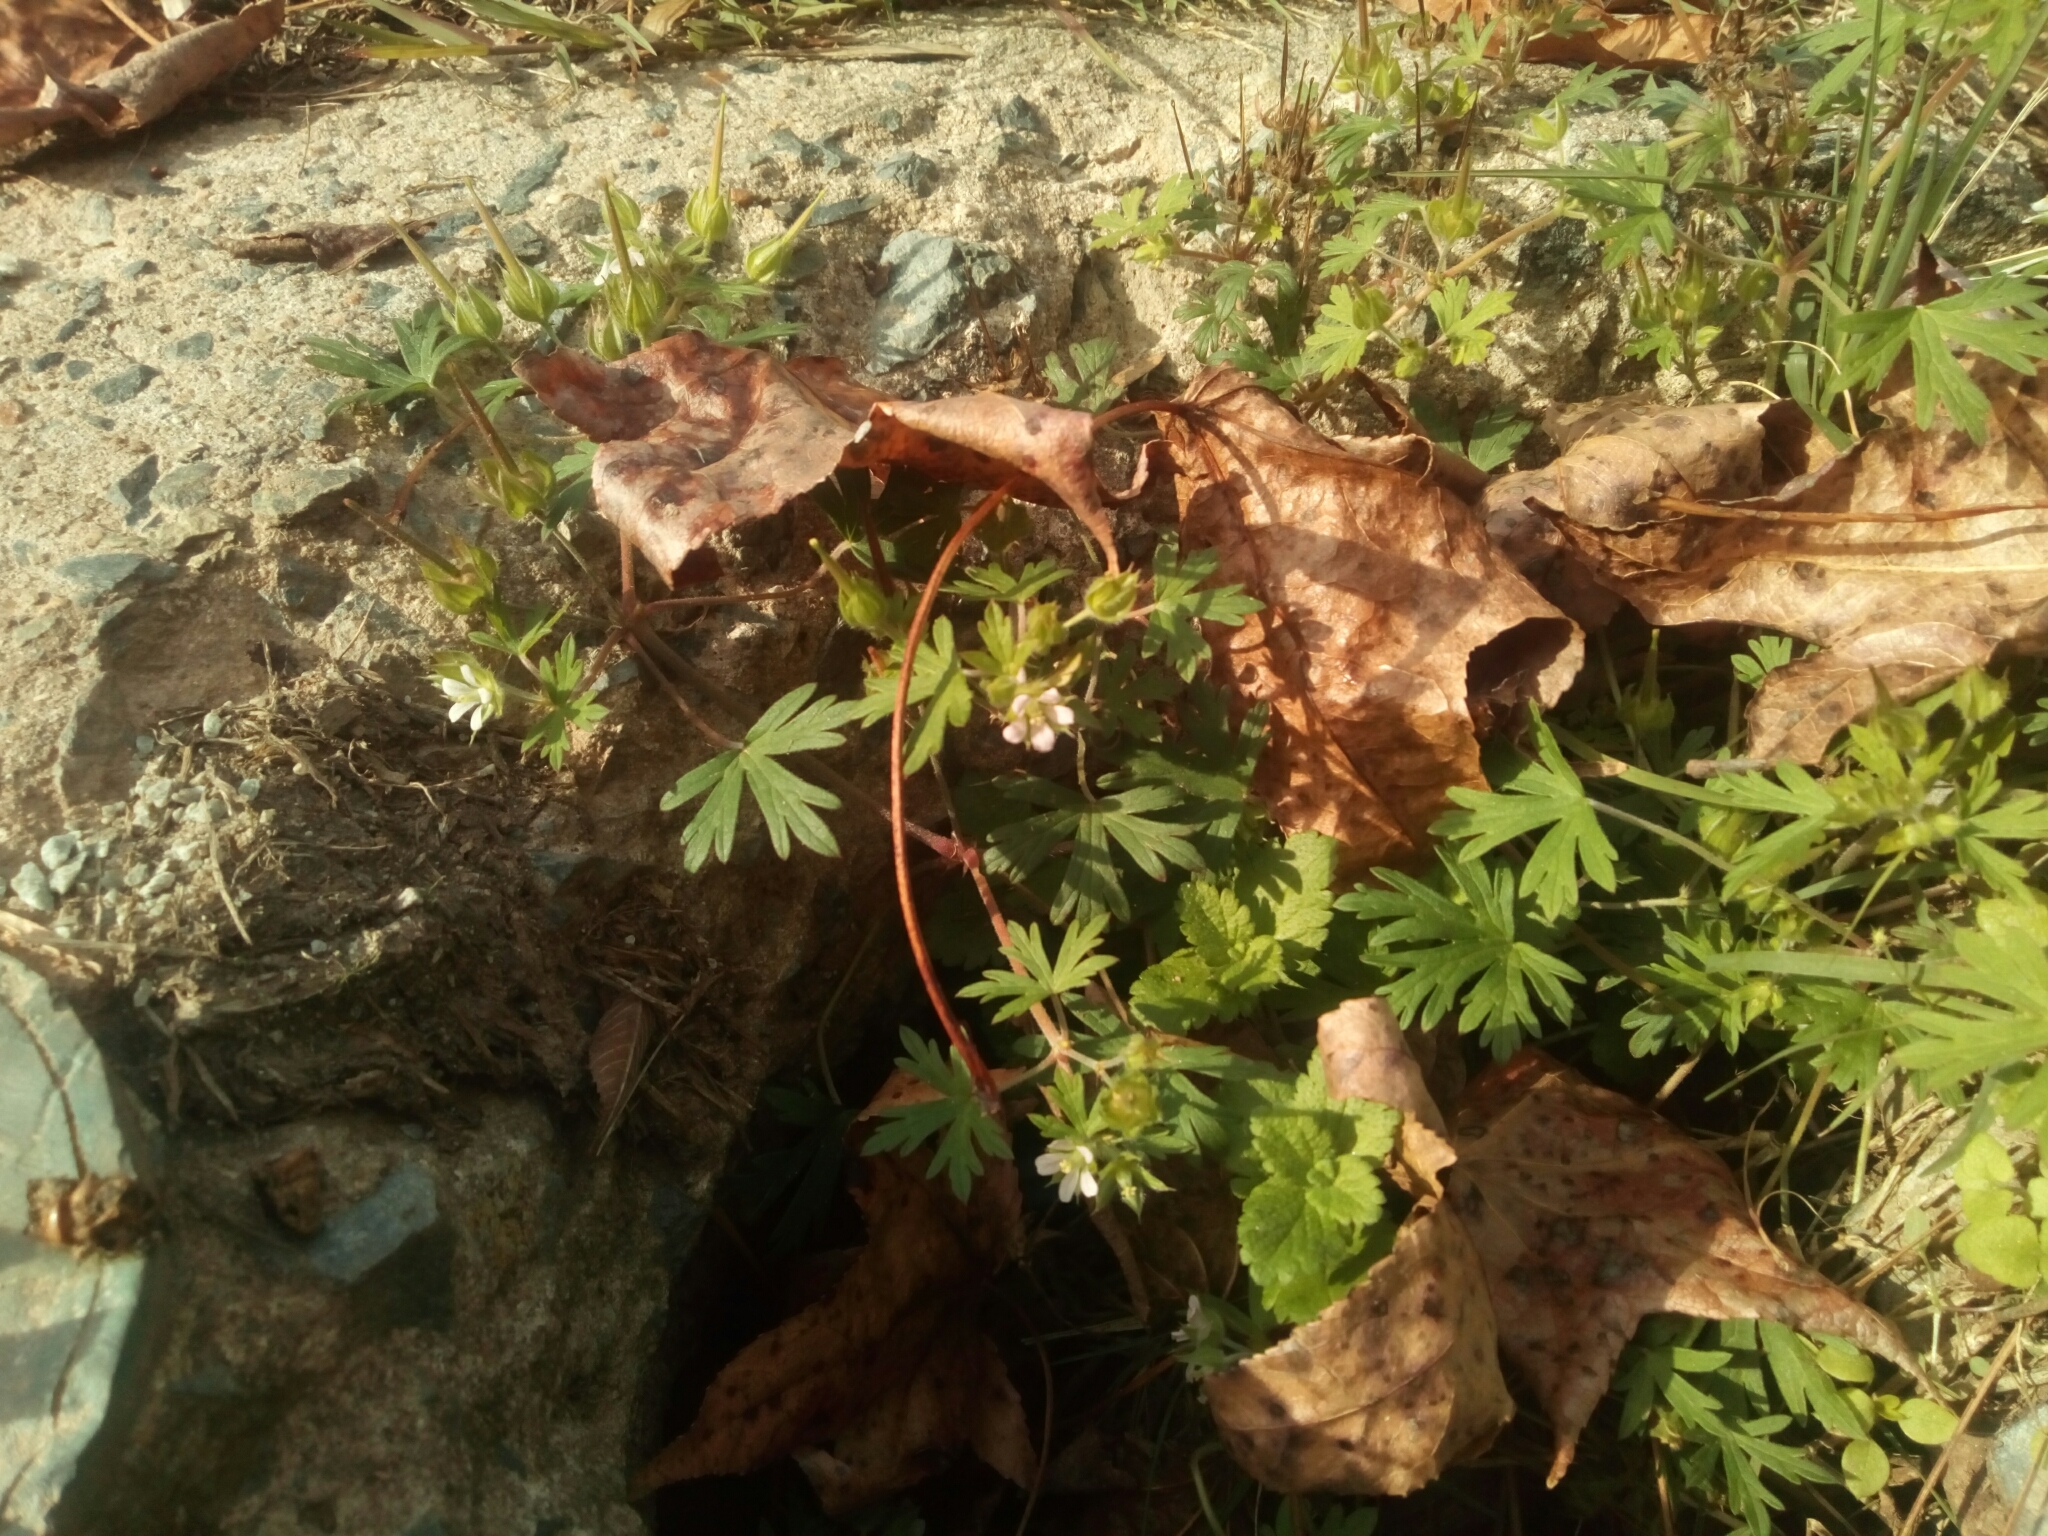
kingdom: Plantae
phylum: Tracheophyta
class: Magnoliopsida
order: Geraniales
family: Geraniaceae
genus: Geranium
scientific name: Geranium carolinianum
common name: Carolina crane's-bill
